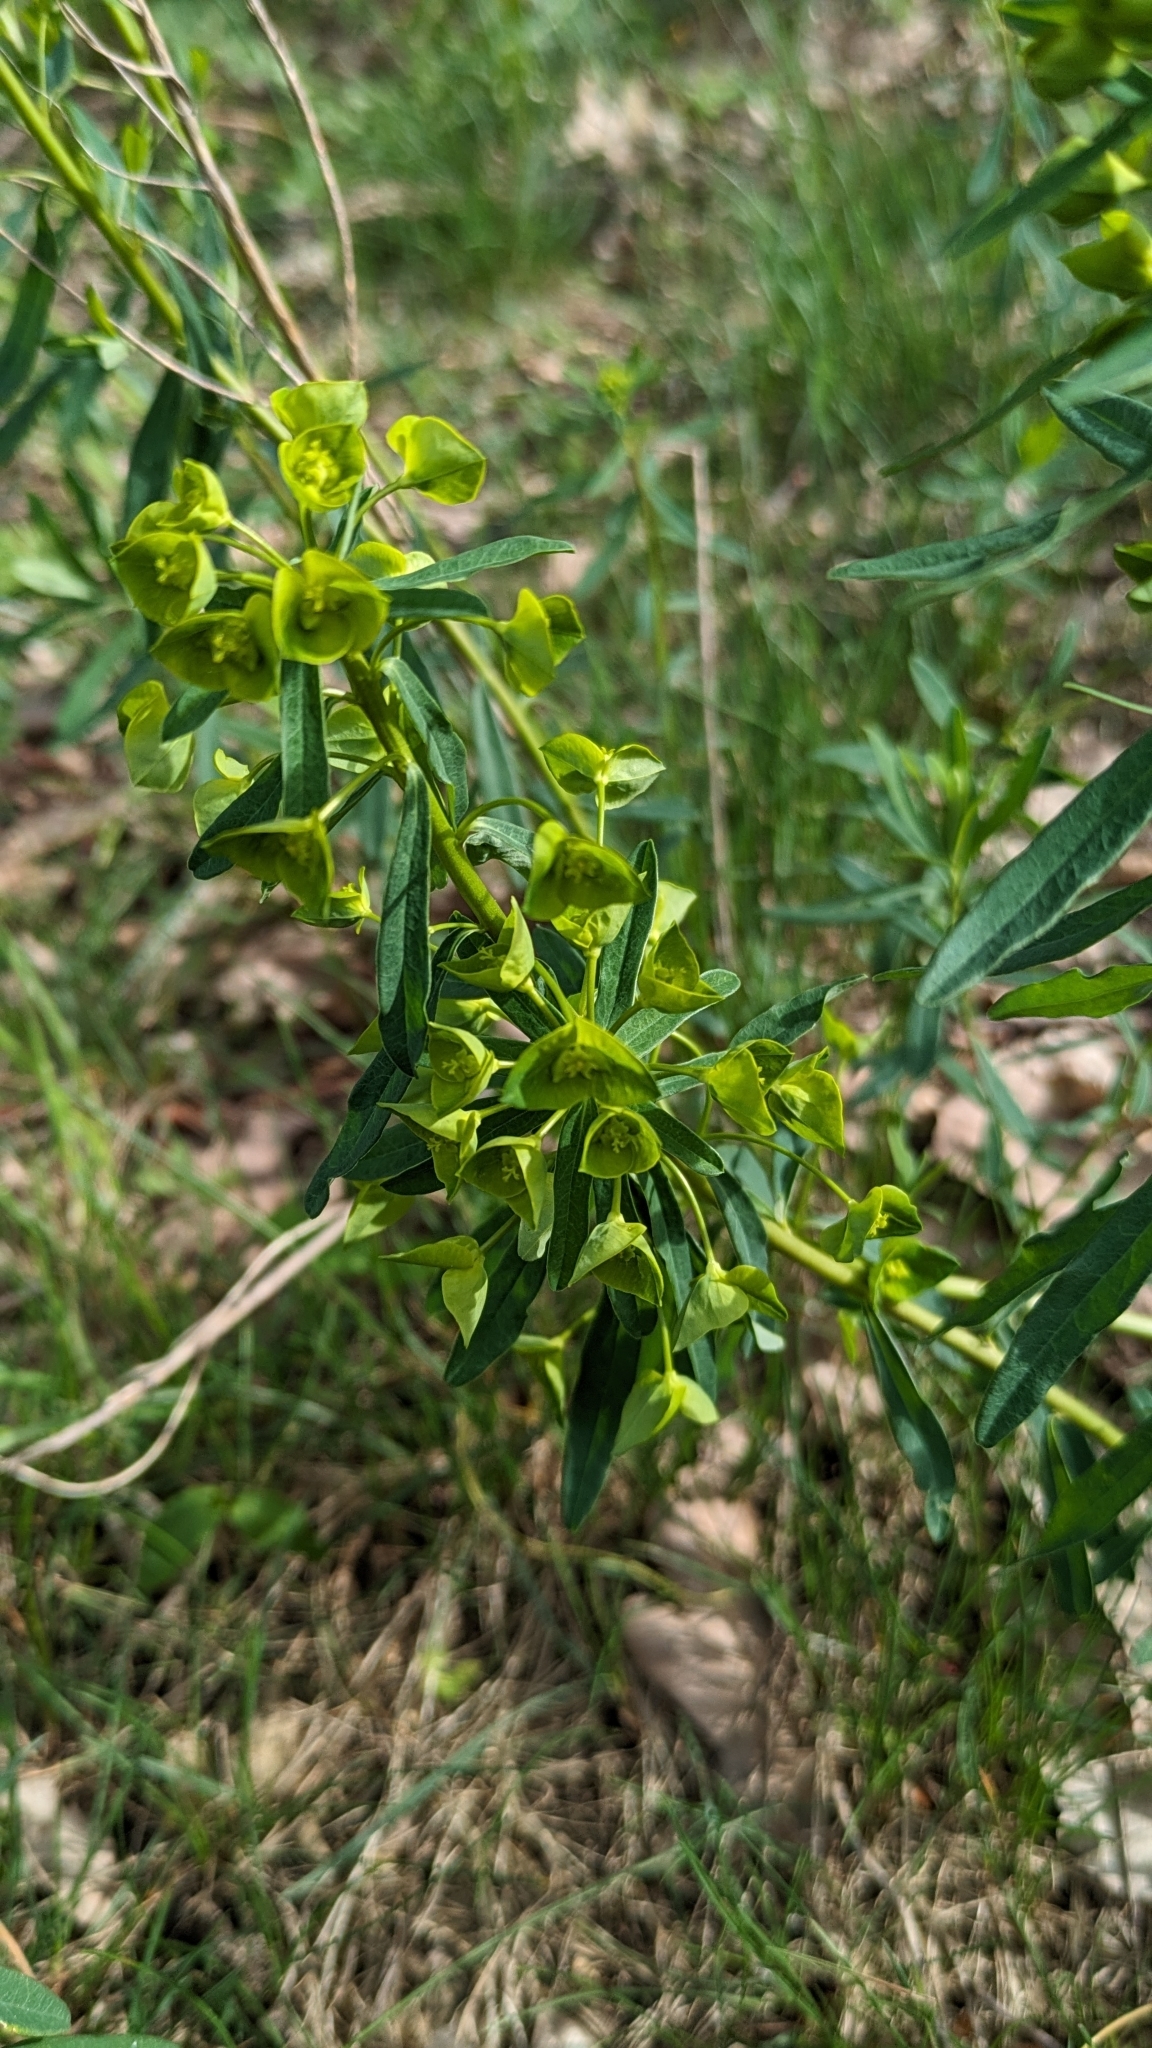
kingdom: Plantae
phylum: Tracheophyta
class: Magnoliopsida
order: Malpighiales
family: Euphorbiaceae
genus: Euphorbia
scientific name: Euphorbia esula
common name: Leafy spurge
